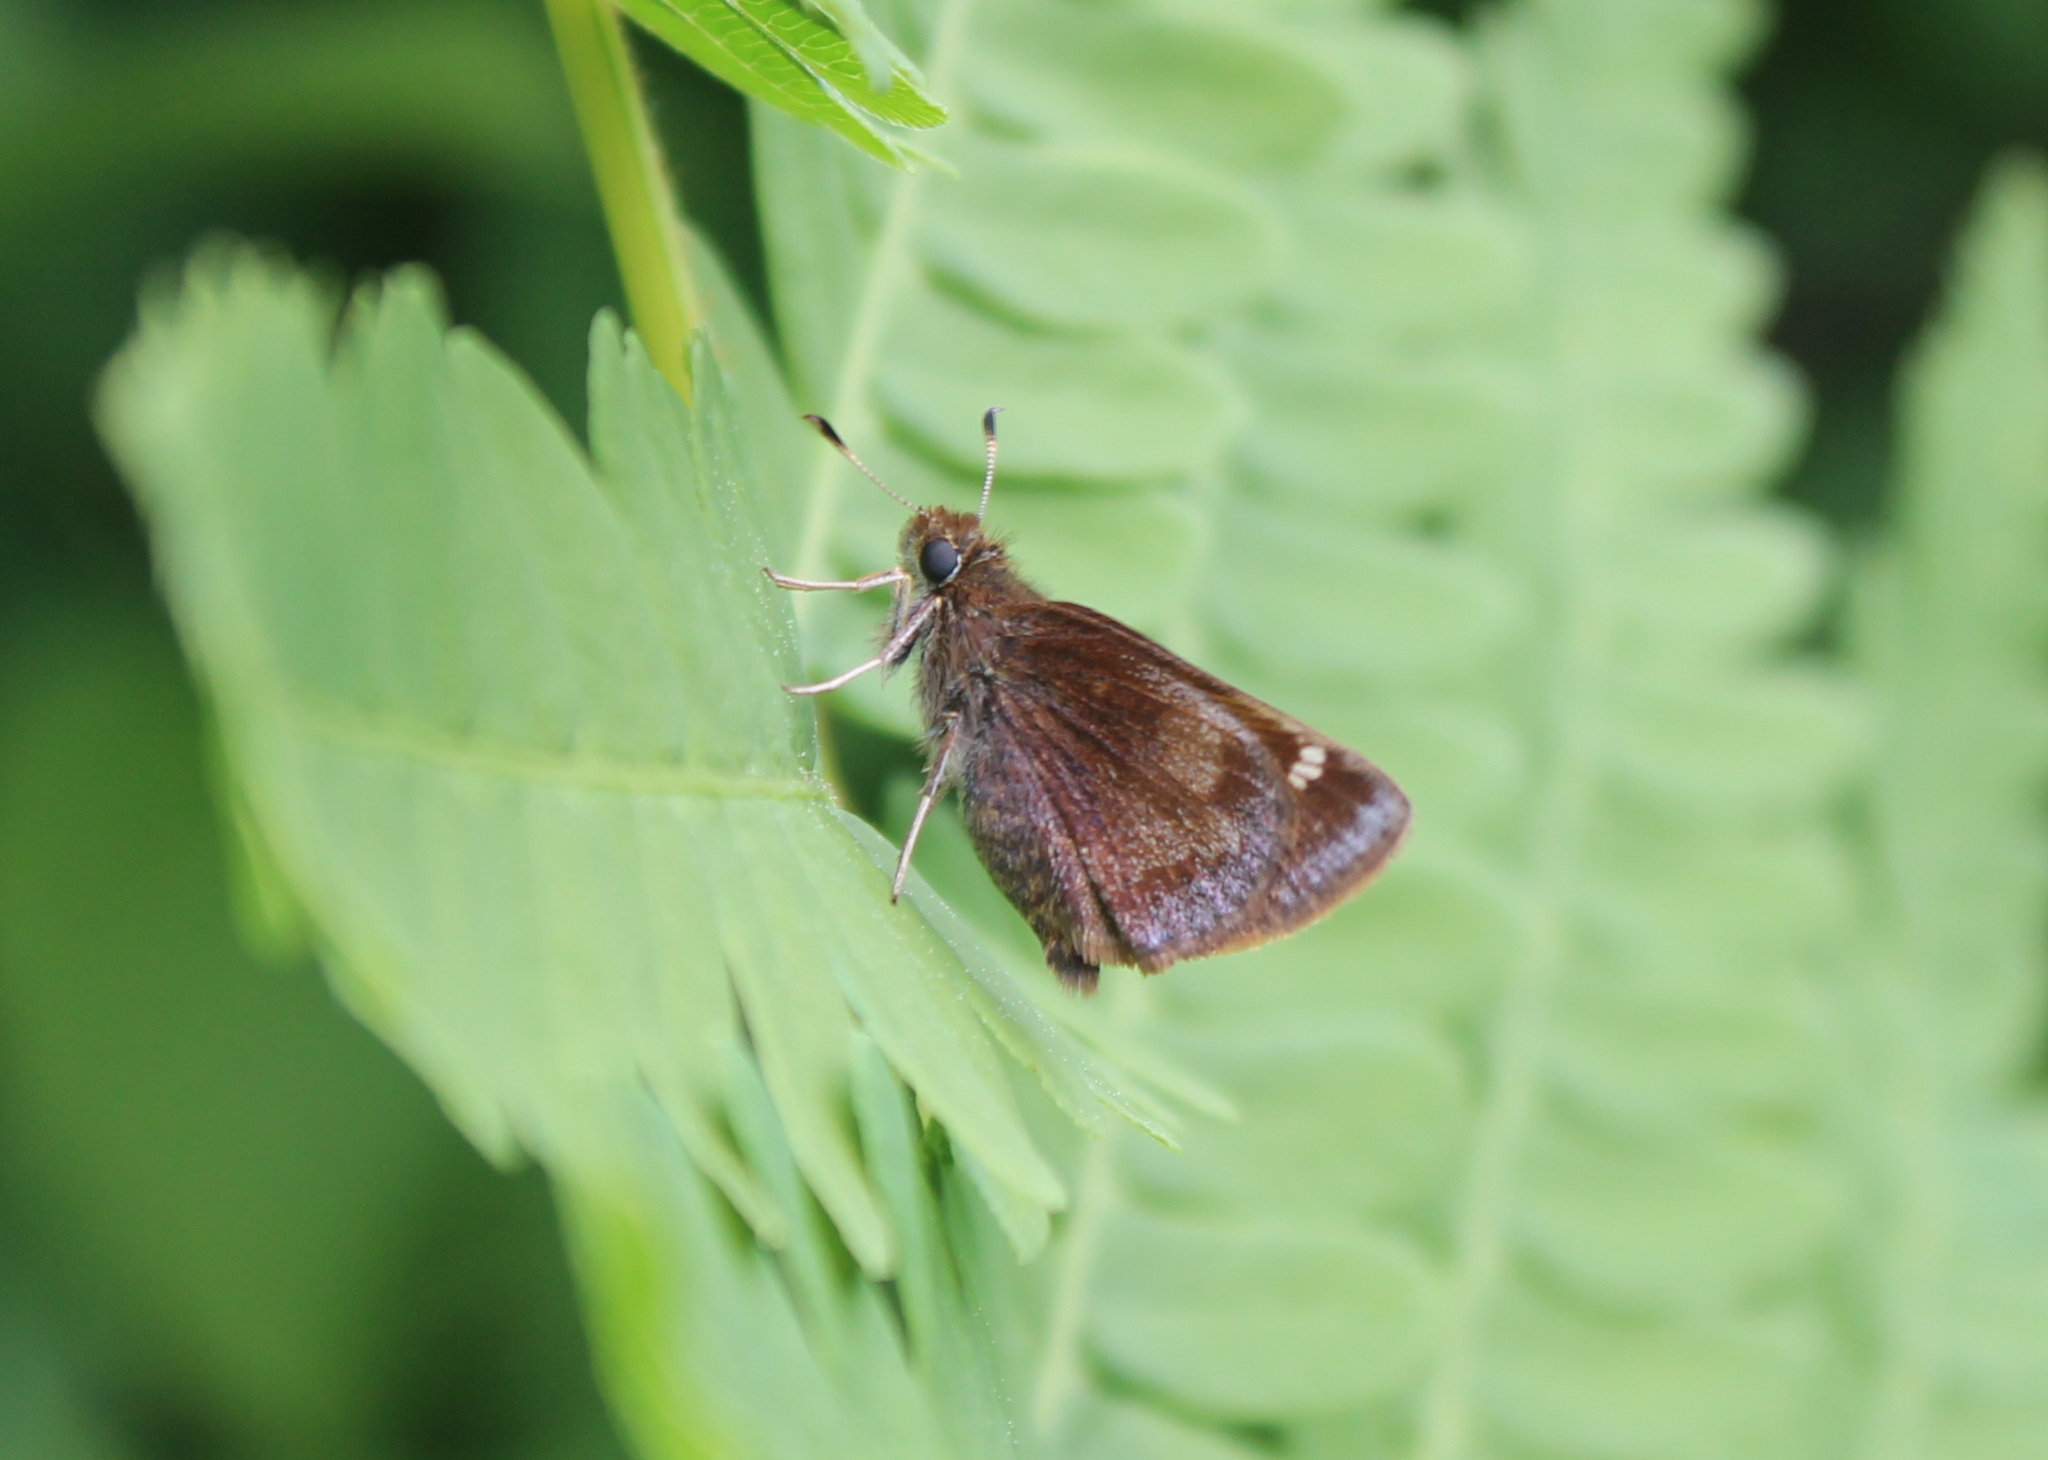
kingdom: Animalia
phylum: Arthropoda
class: Insecta
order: Lepidoptera
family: Hesperiidae
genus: Lon
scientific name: Lon hobomok
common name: Hobomok skipper
